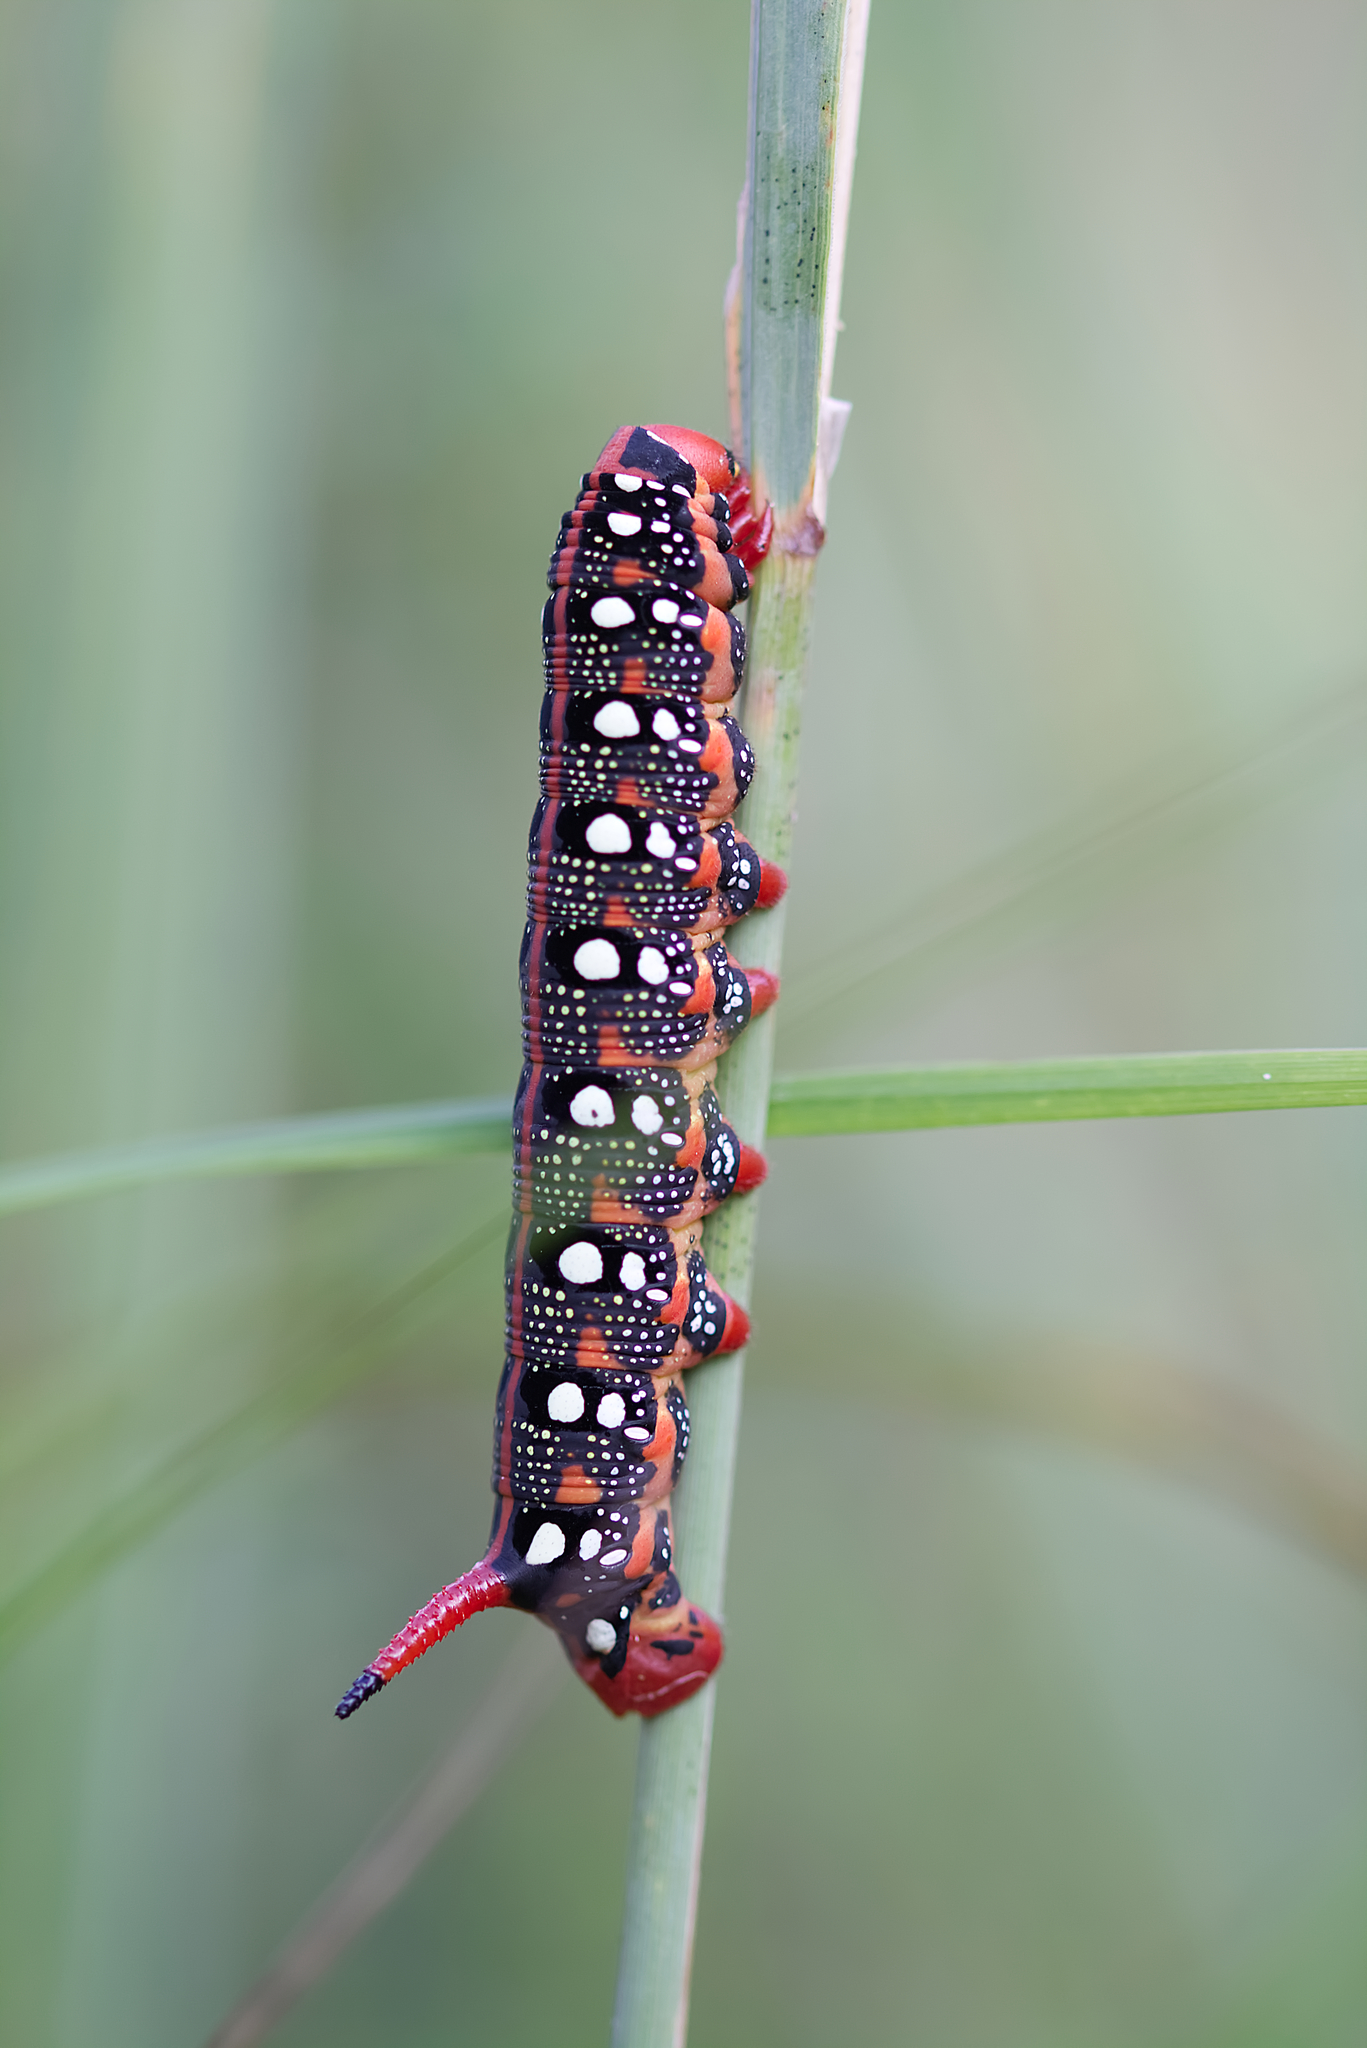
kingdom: Animalia
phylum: Arthropoda
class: Insecta
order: Lepidoptera
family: Sphingidae
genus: Hyles
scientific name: Hyles euphorbiae
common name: Spurge hawk-moth
